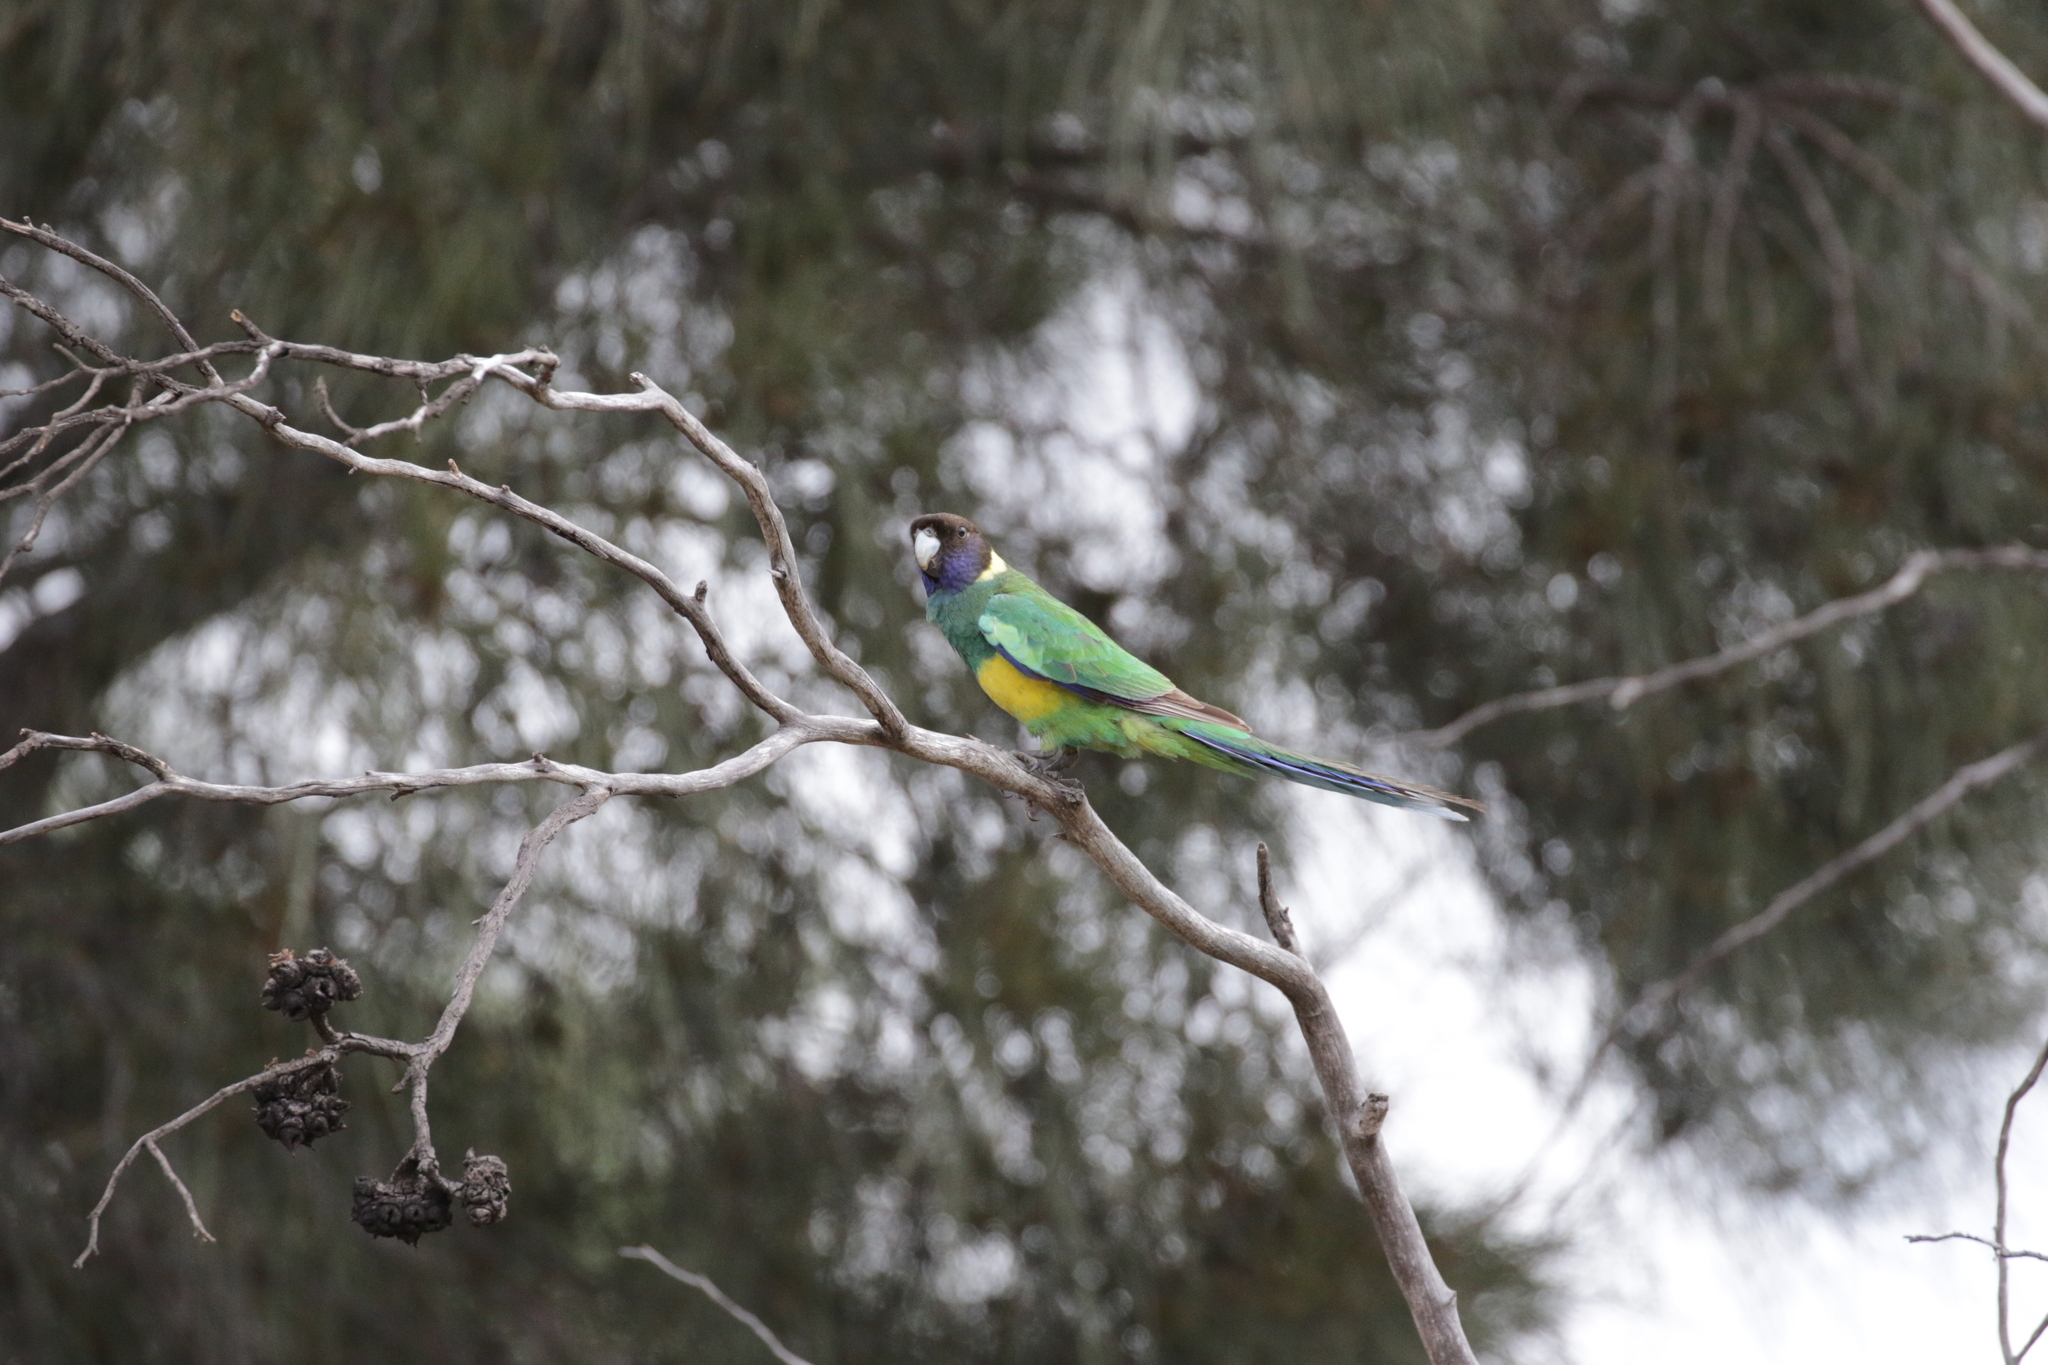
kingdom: Animalia
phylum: Chordata
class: Aves
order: Psittaciformes
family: Psittacidae
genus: Barnardius
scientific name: Barnardius zonarius
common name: Australian ringneck
